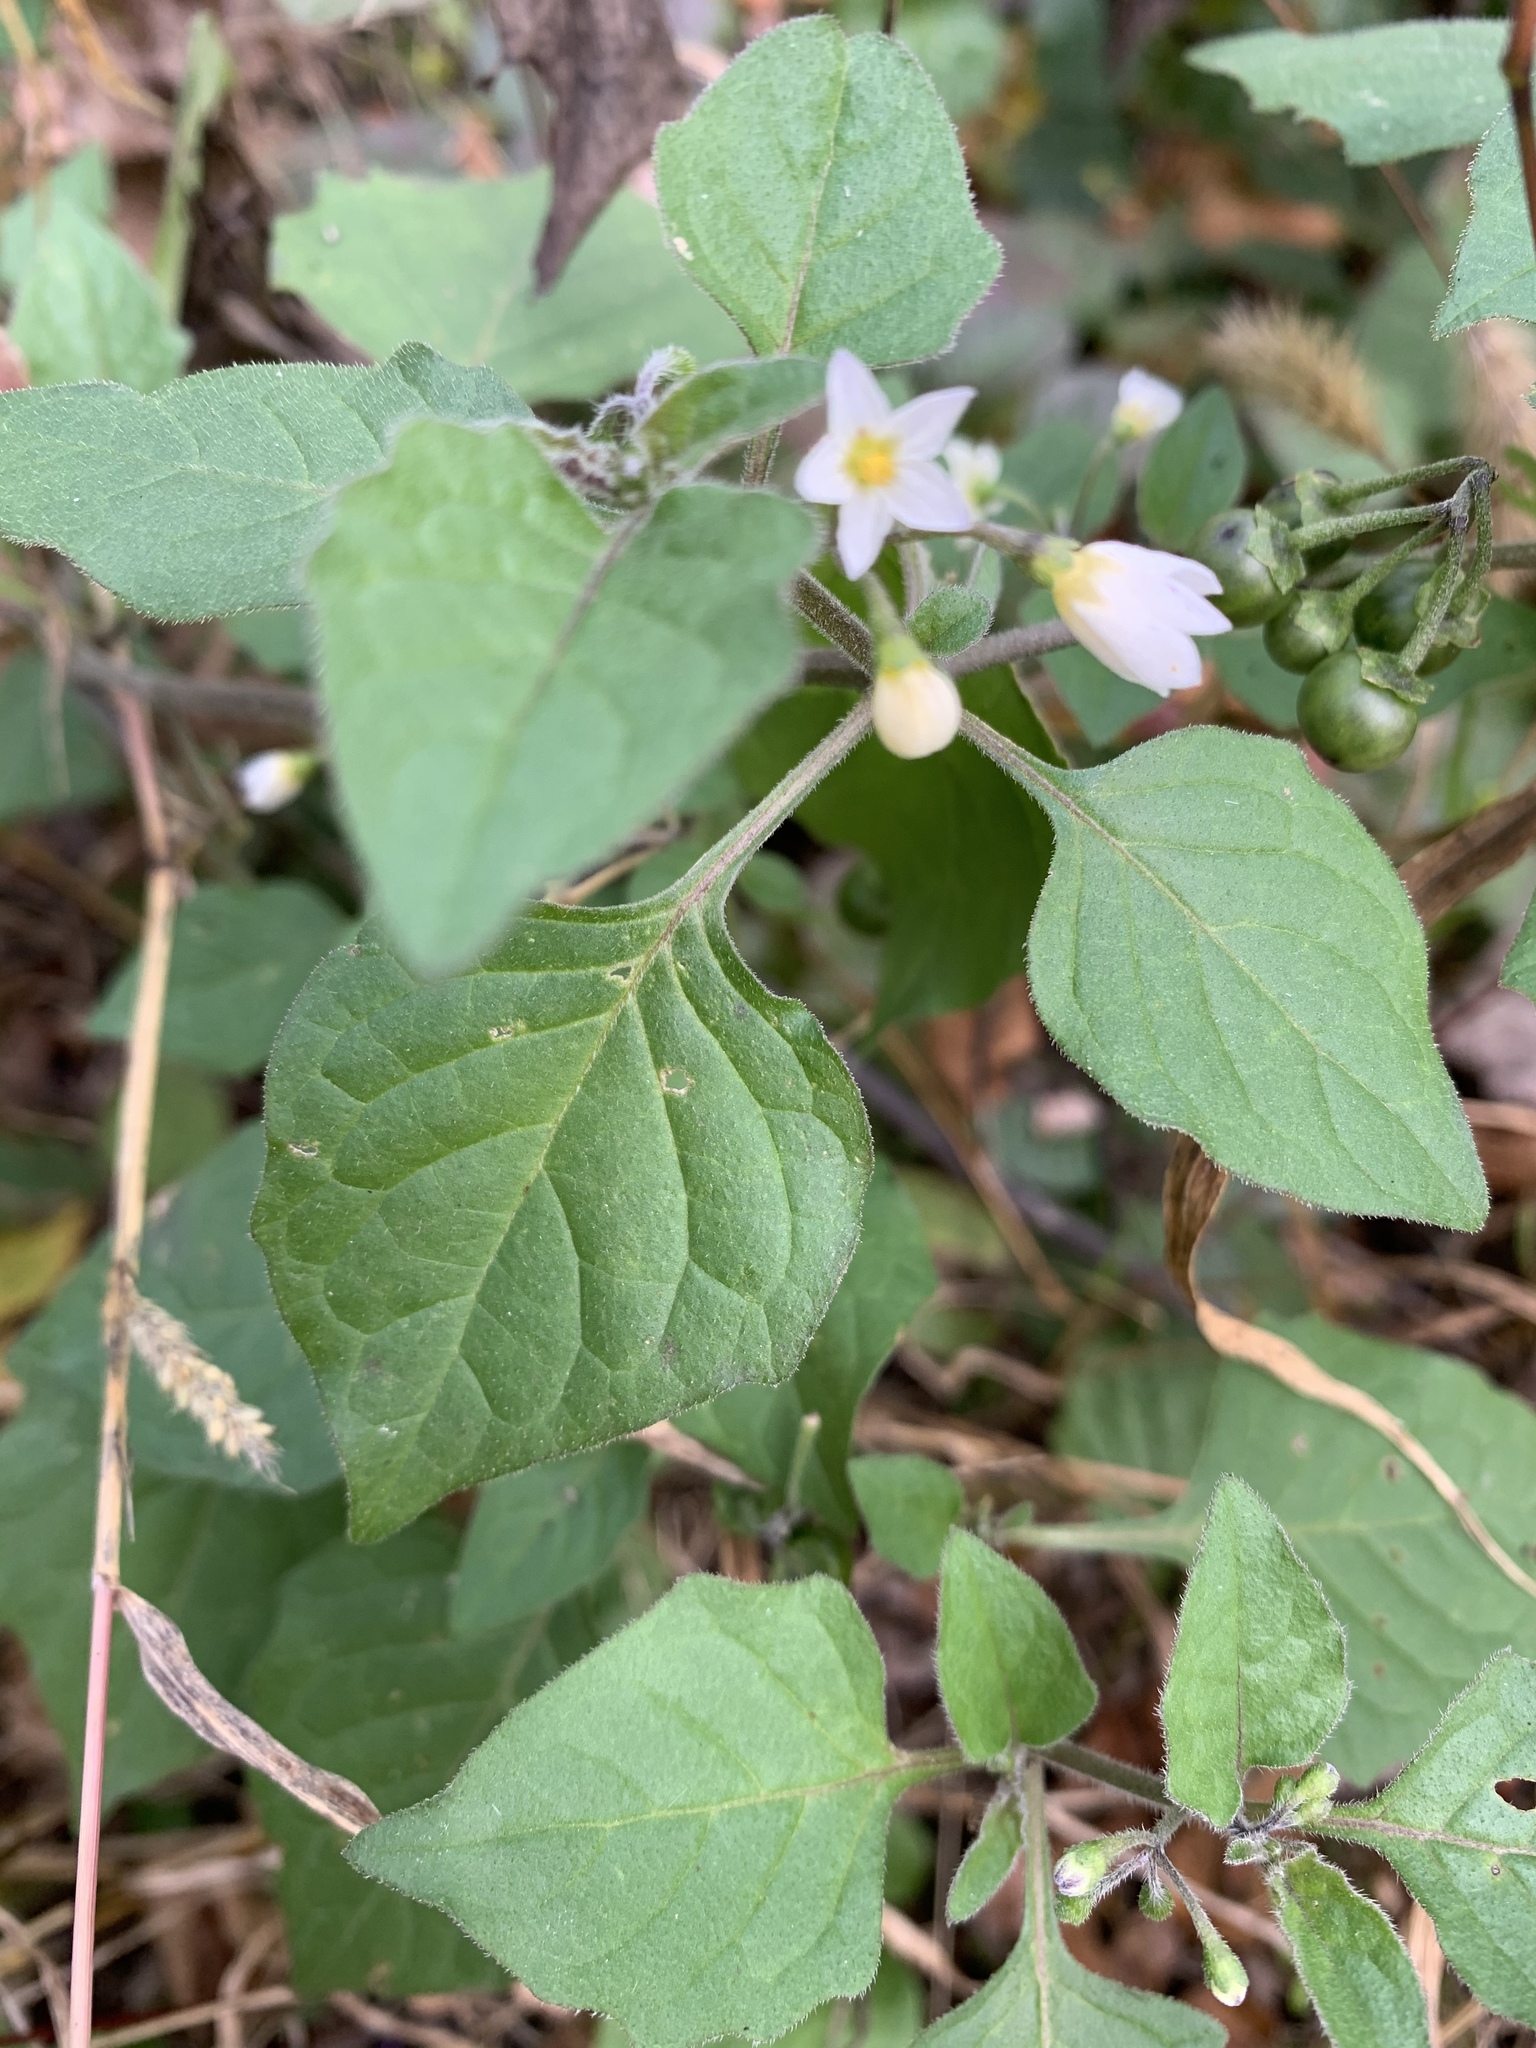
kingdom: Plantae
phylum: Tracheophyta
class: Magnoliopsida
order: Solanales
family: Solanaceae
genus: Solanum
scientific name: Solanum nigrum
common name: Black nightshade
